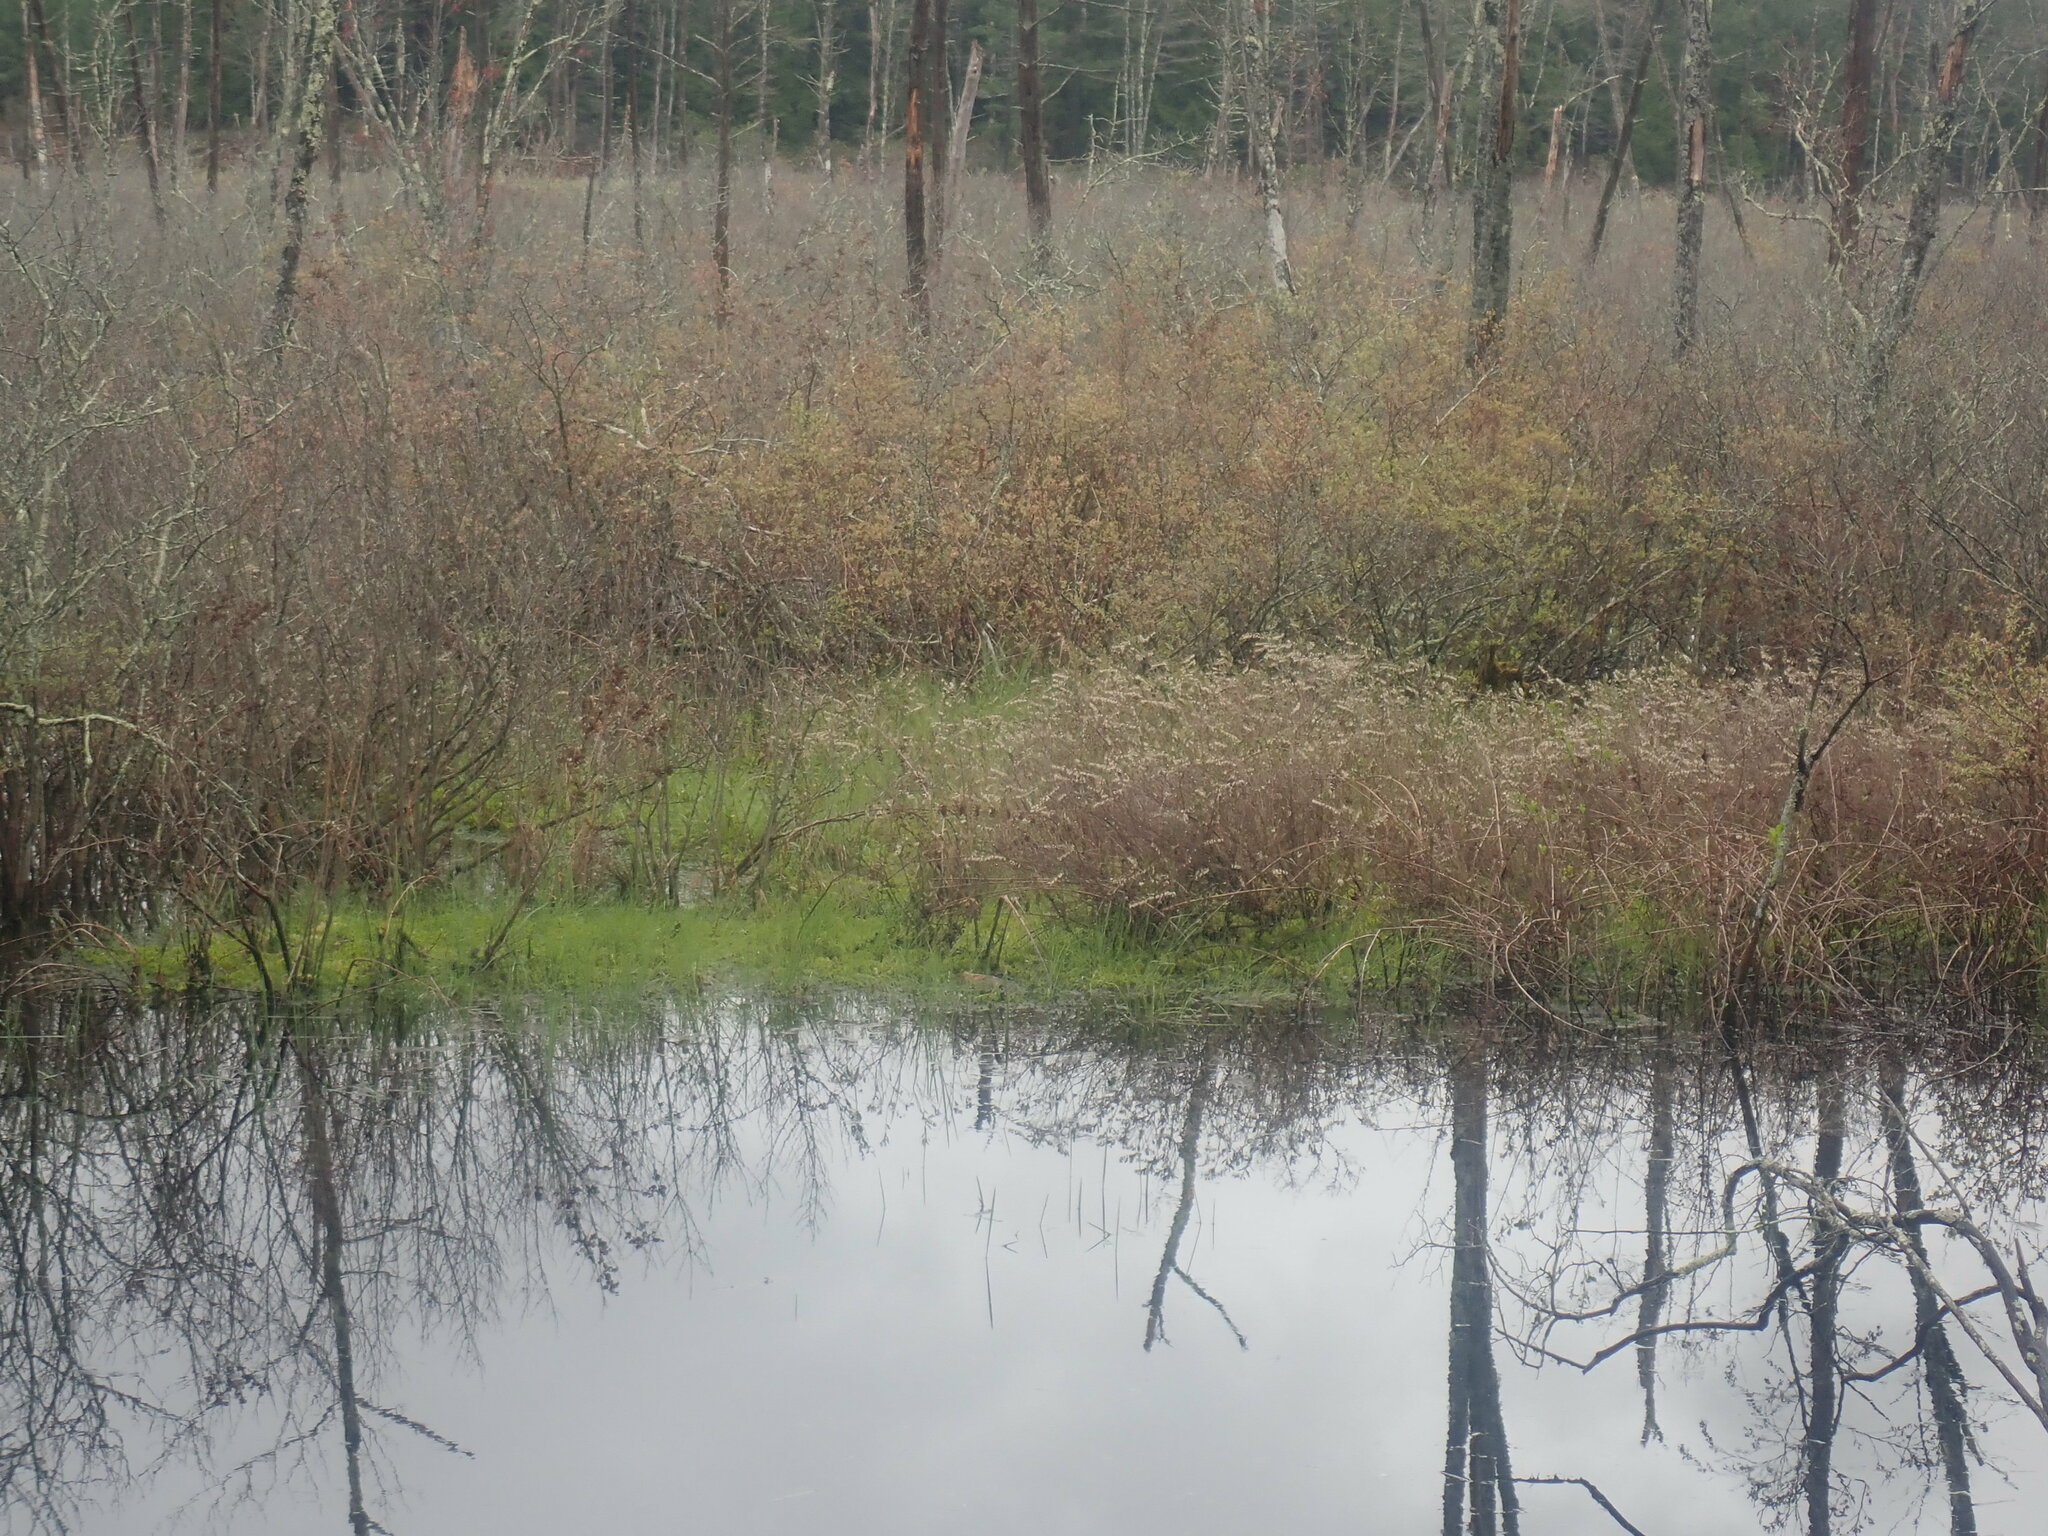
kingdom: Plantae
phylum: Tracheophyta
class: Magnoliopsida
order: Ericales
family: Ericaceae
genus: Chamaedaphne
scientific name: Chamaedaphne calyculata
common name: Leatherleaf
